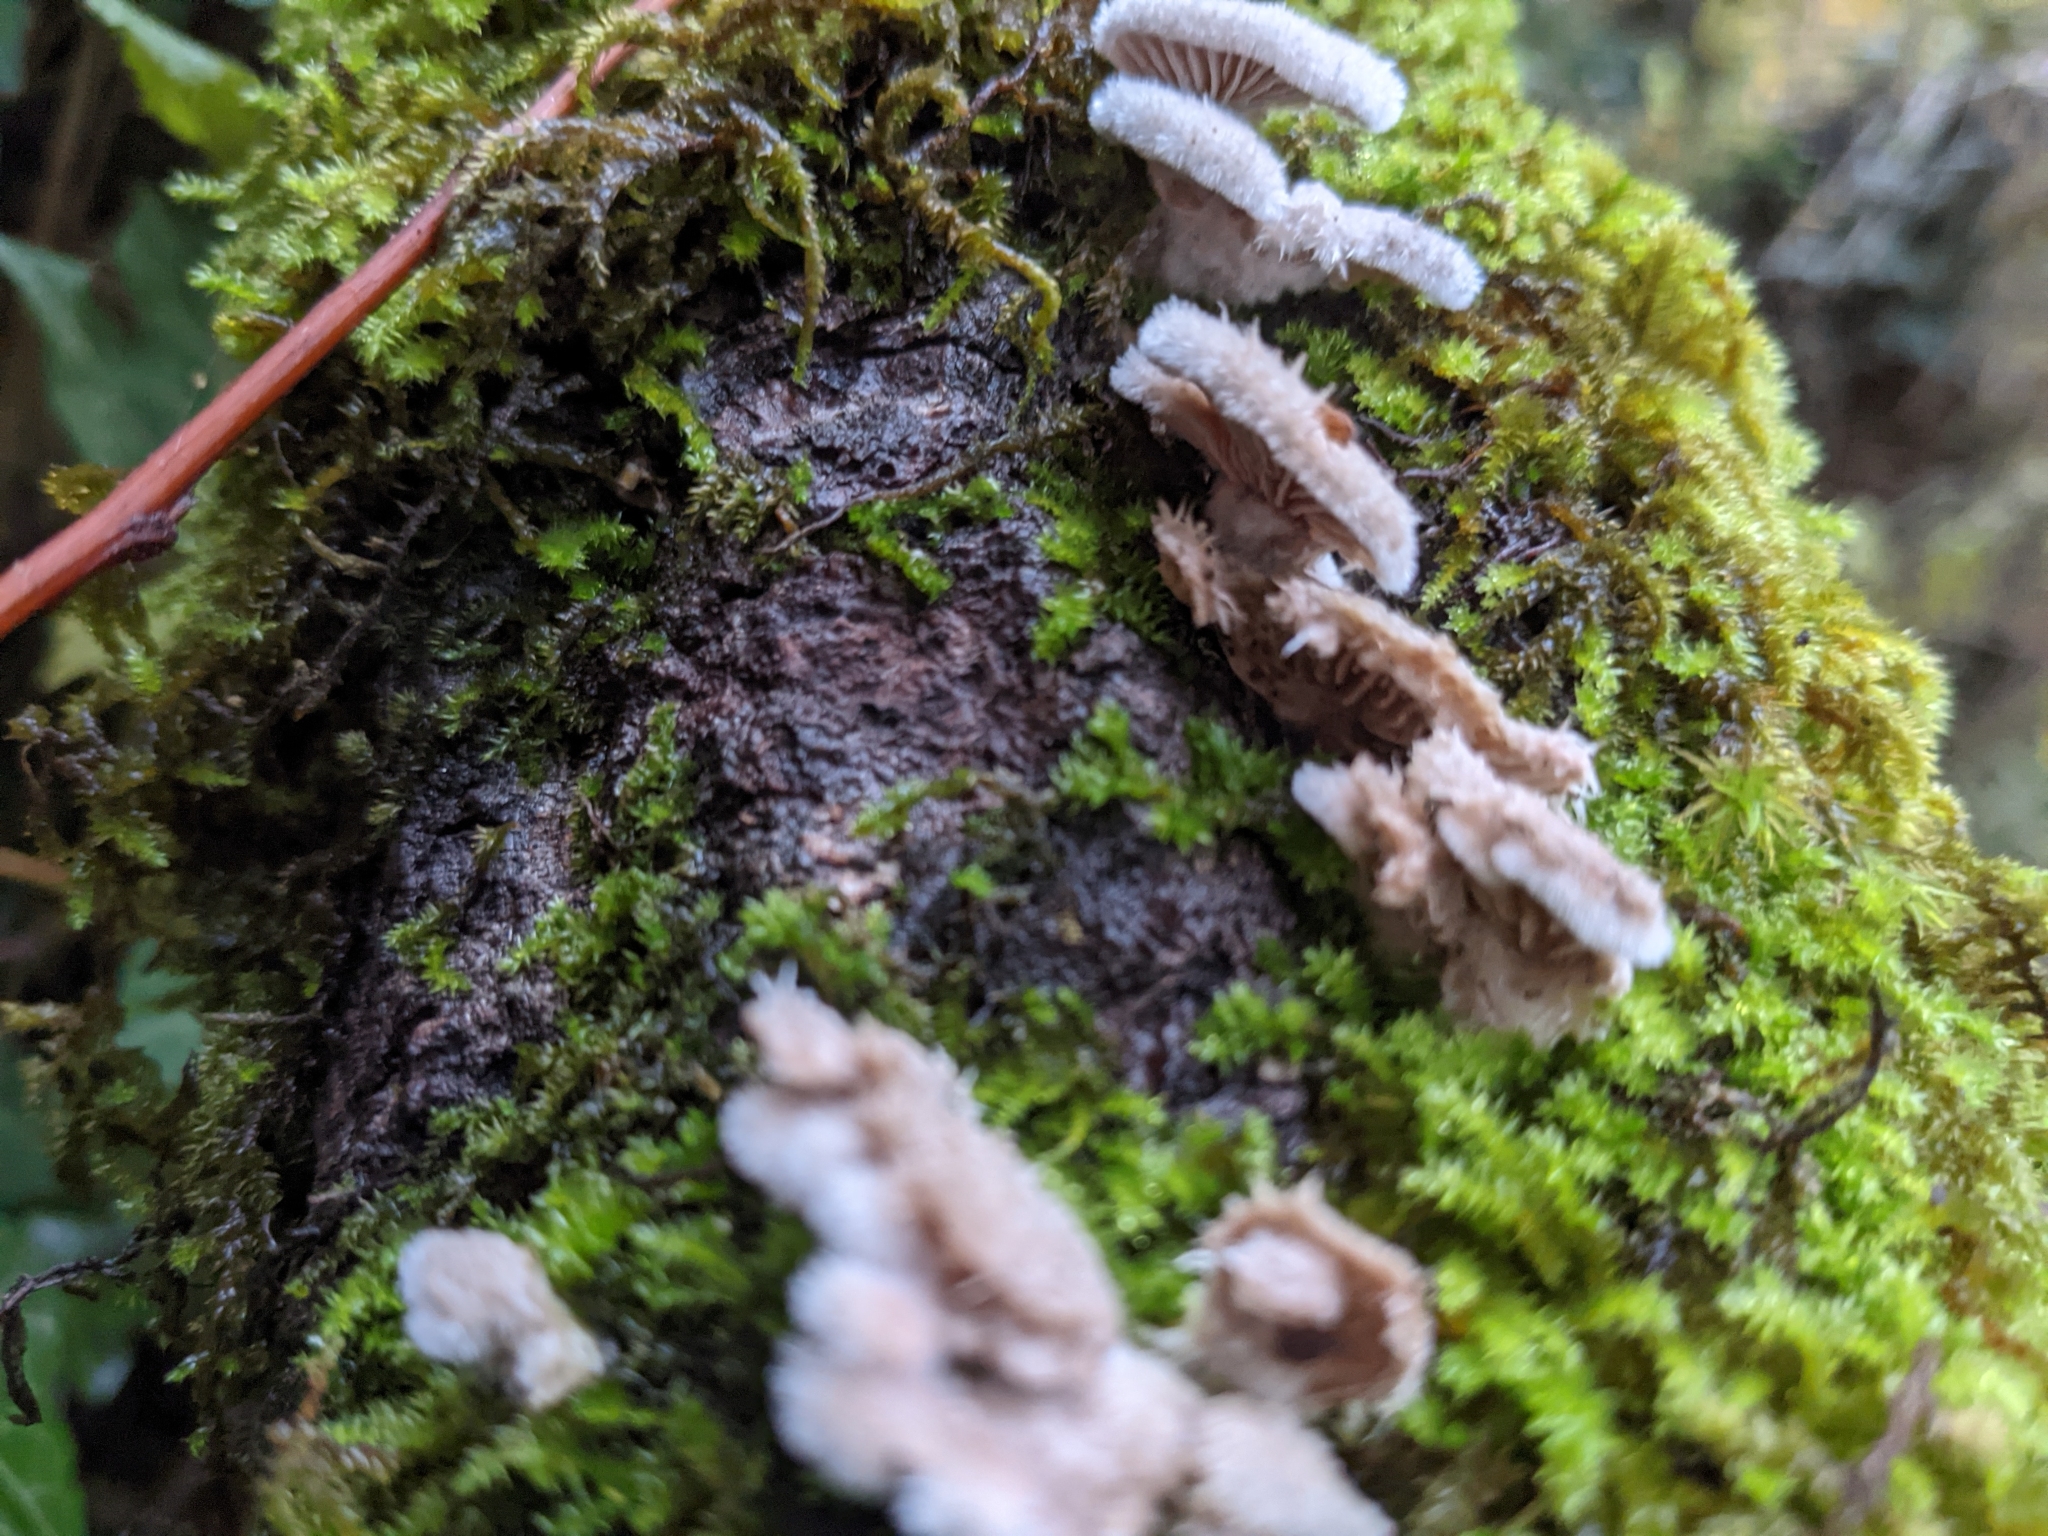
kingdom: Fungi
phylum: Basidiomycota
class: Agaricomycetes
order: Agaricales
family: Schizophyllaceae
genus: Schizophyllum
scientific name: Schizophyllum commune
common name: Common porecrust
